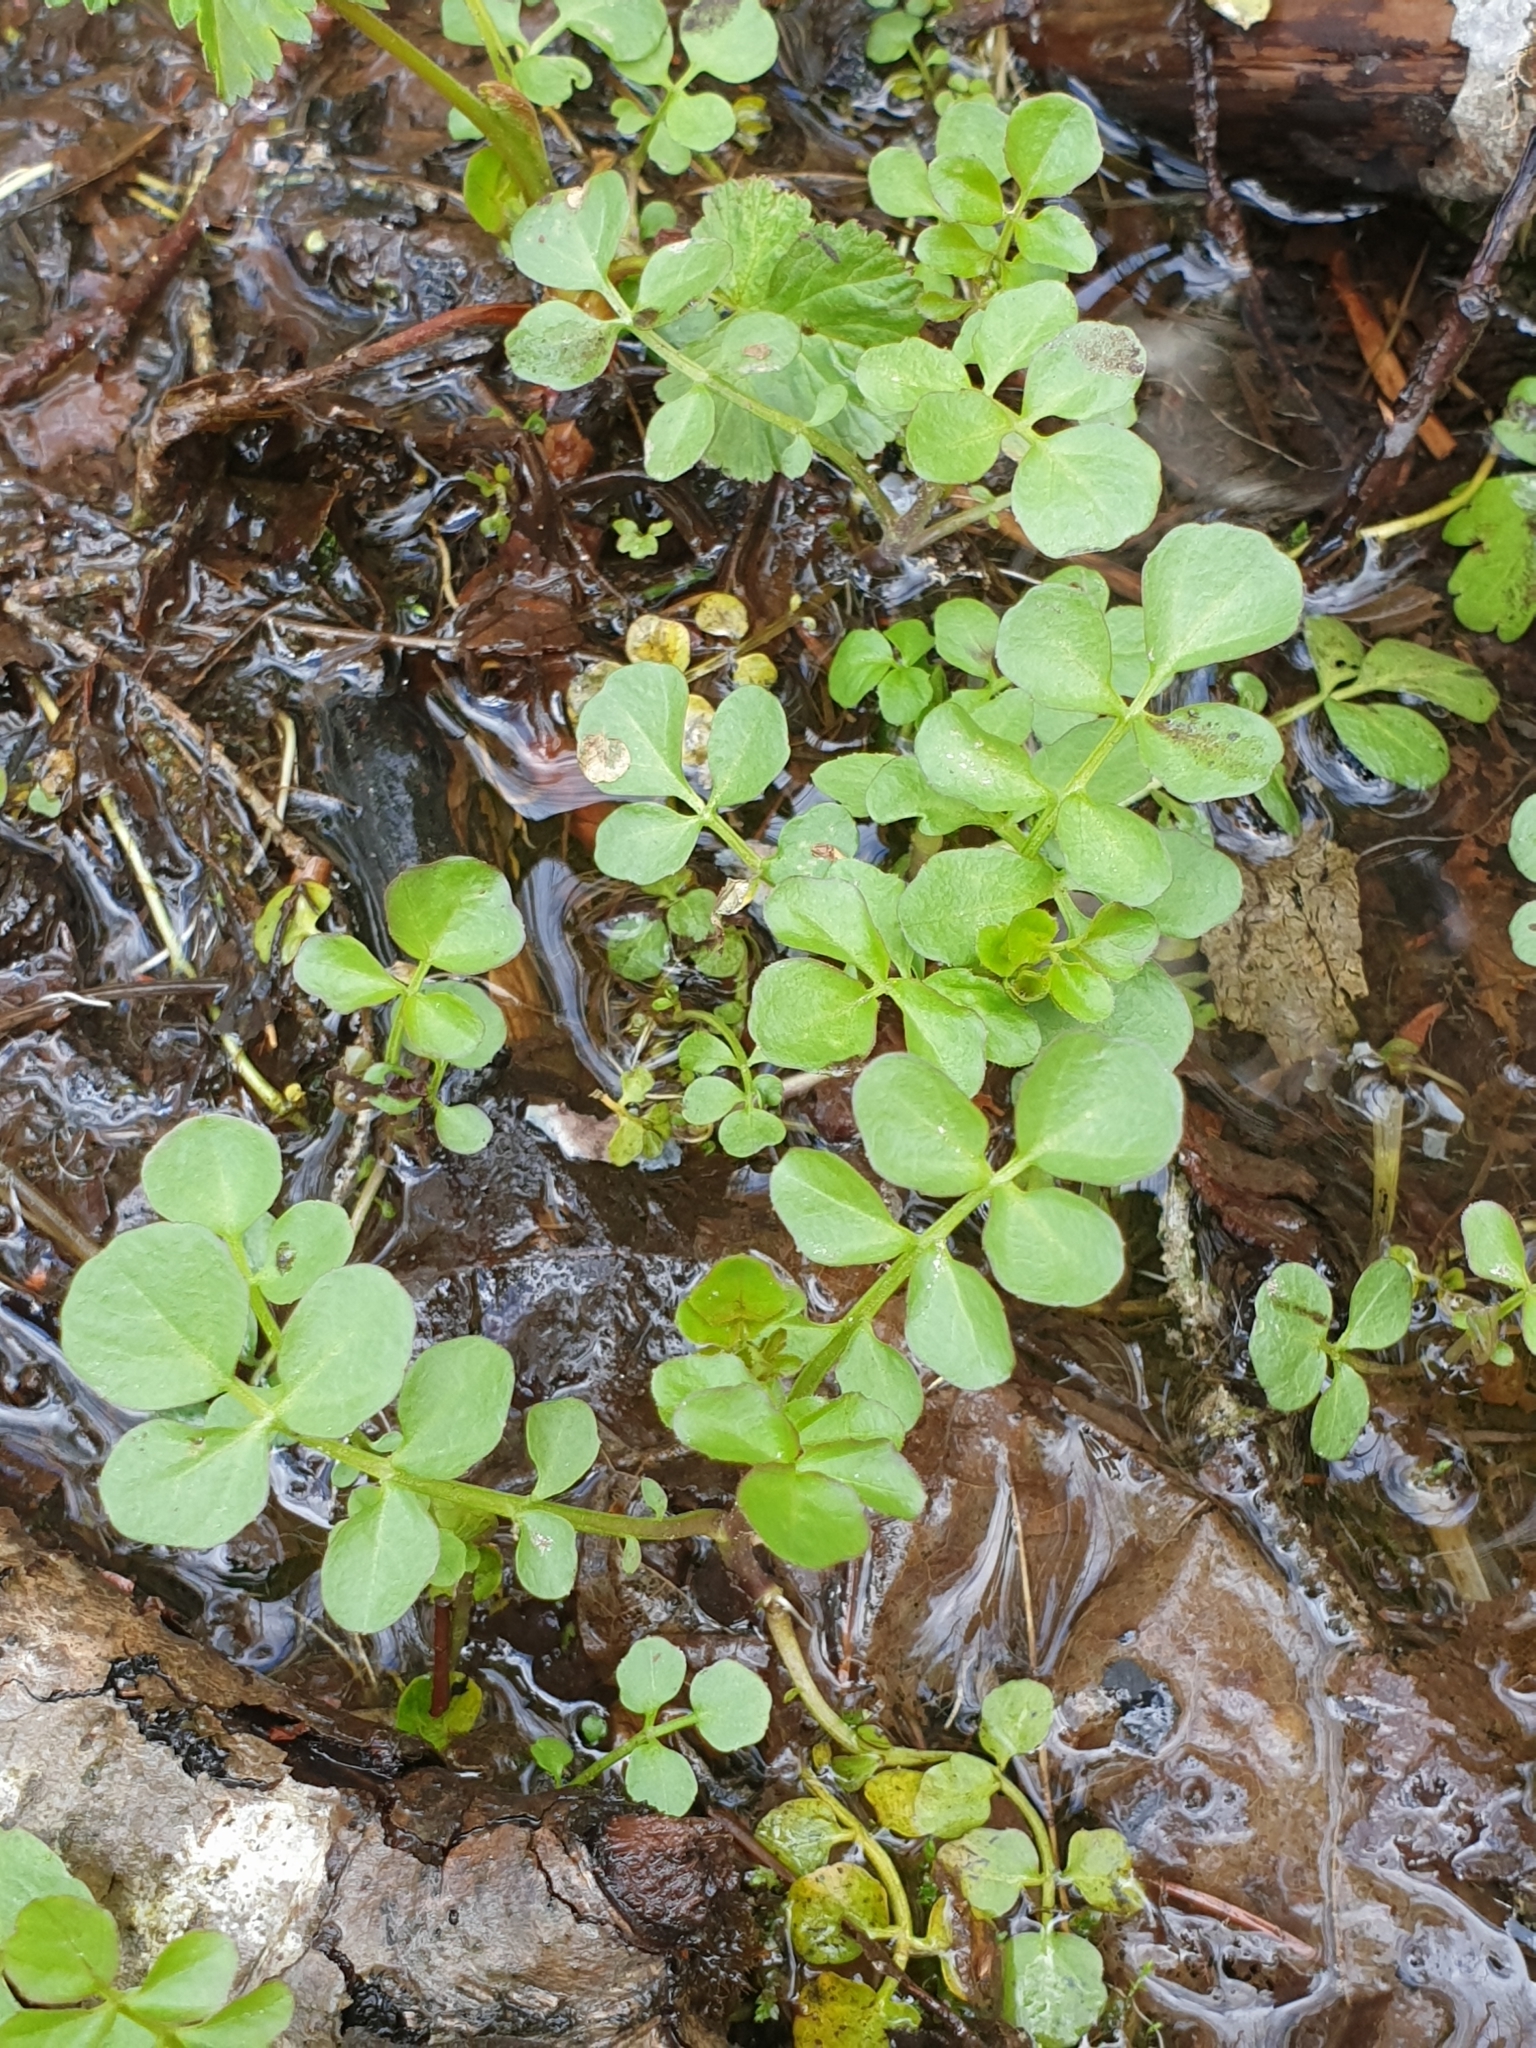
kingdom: Plantae
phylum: Tracheophyta
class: Magnoliopsida
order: Brassicales
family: Brassicaceae
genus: Cardamine
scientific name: Cardamine amara
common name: Large bitter-cress
